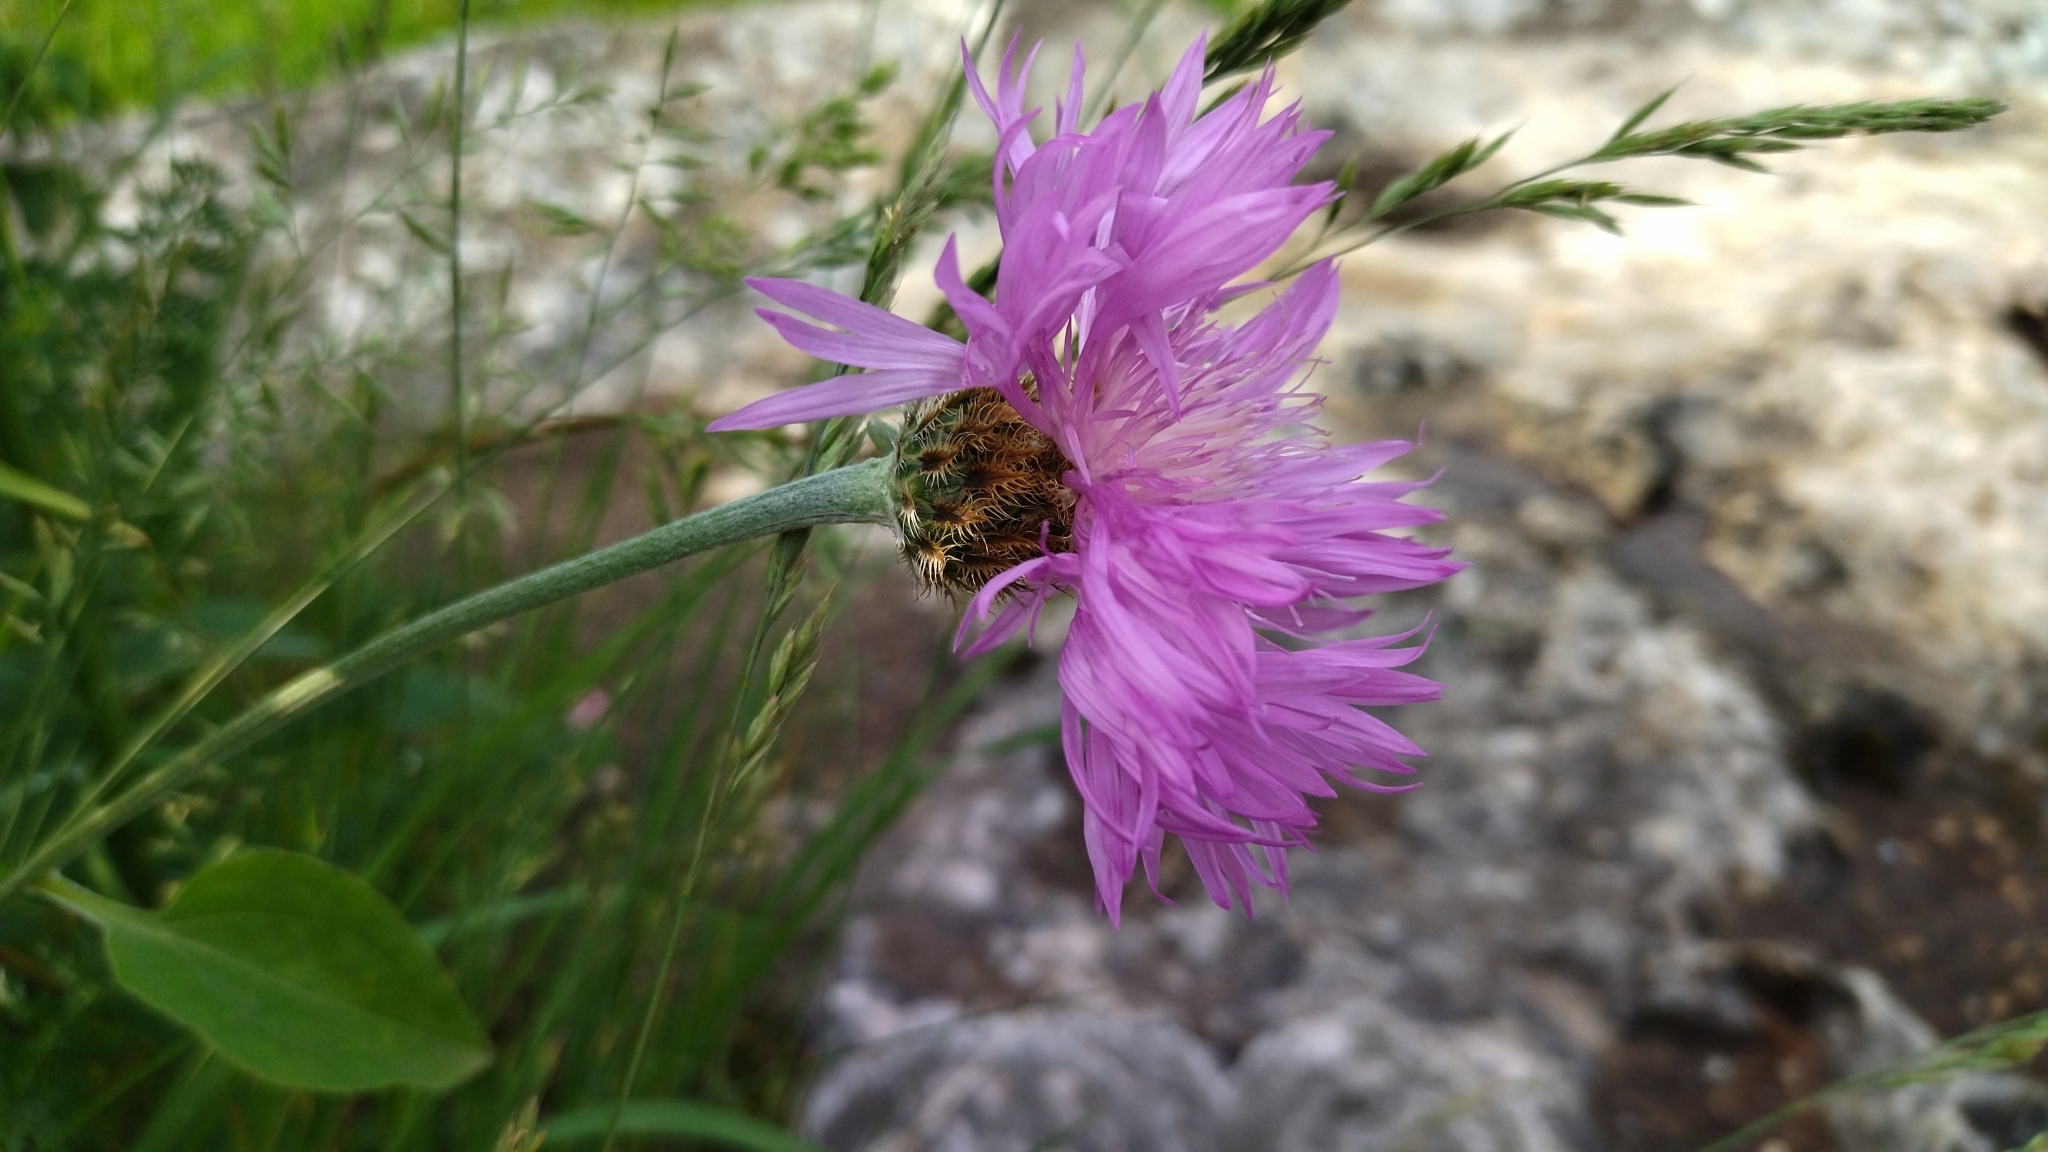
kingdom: Plantae
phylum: Tracheophyta
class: Magnoliopsida
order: Asterales
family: Asteraceae
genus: Psephellus
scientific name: Psephellus holophyllus
